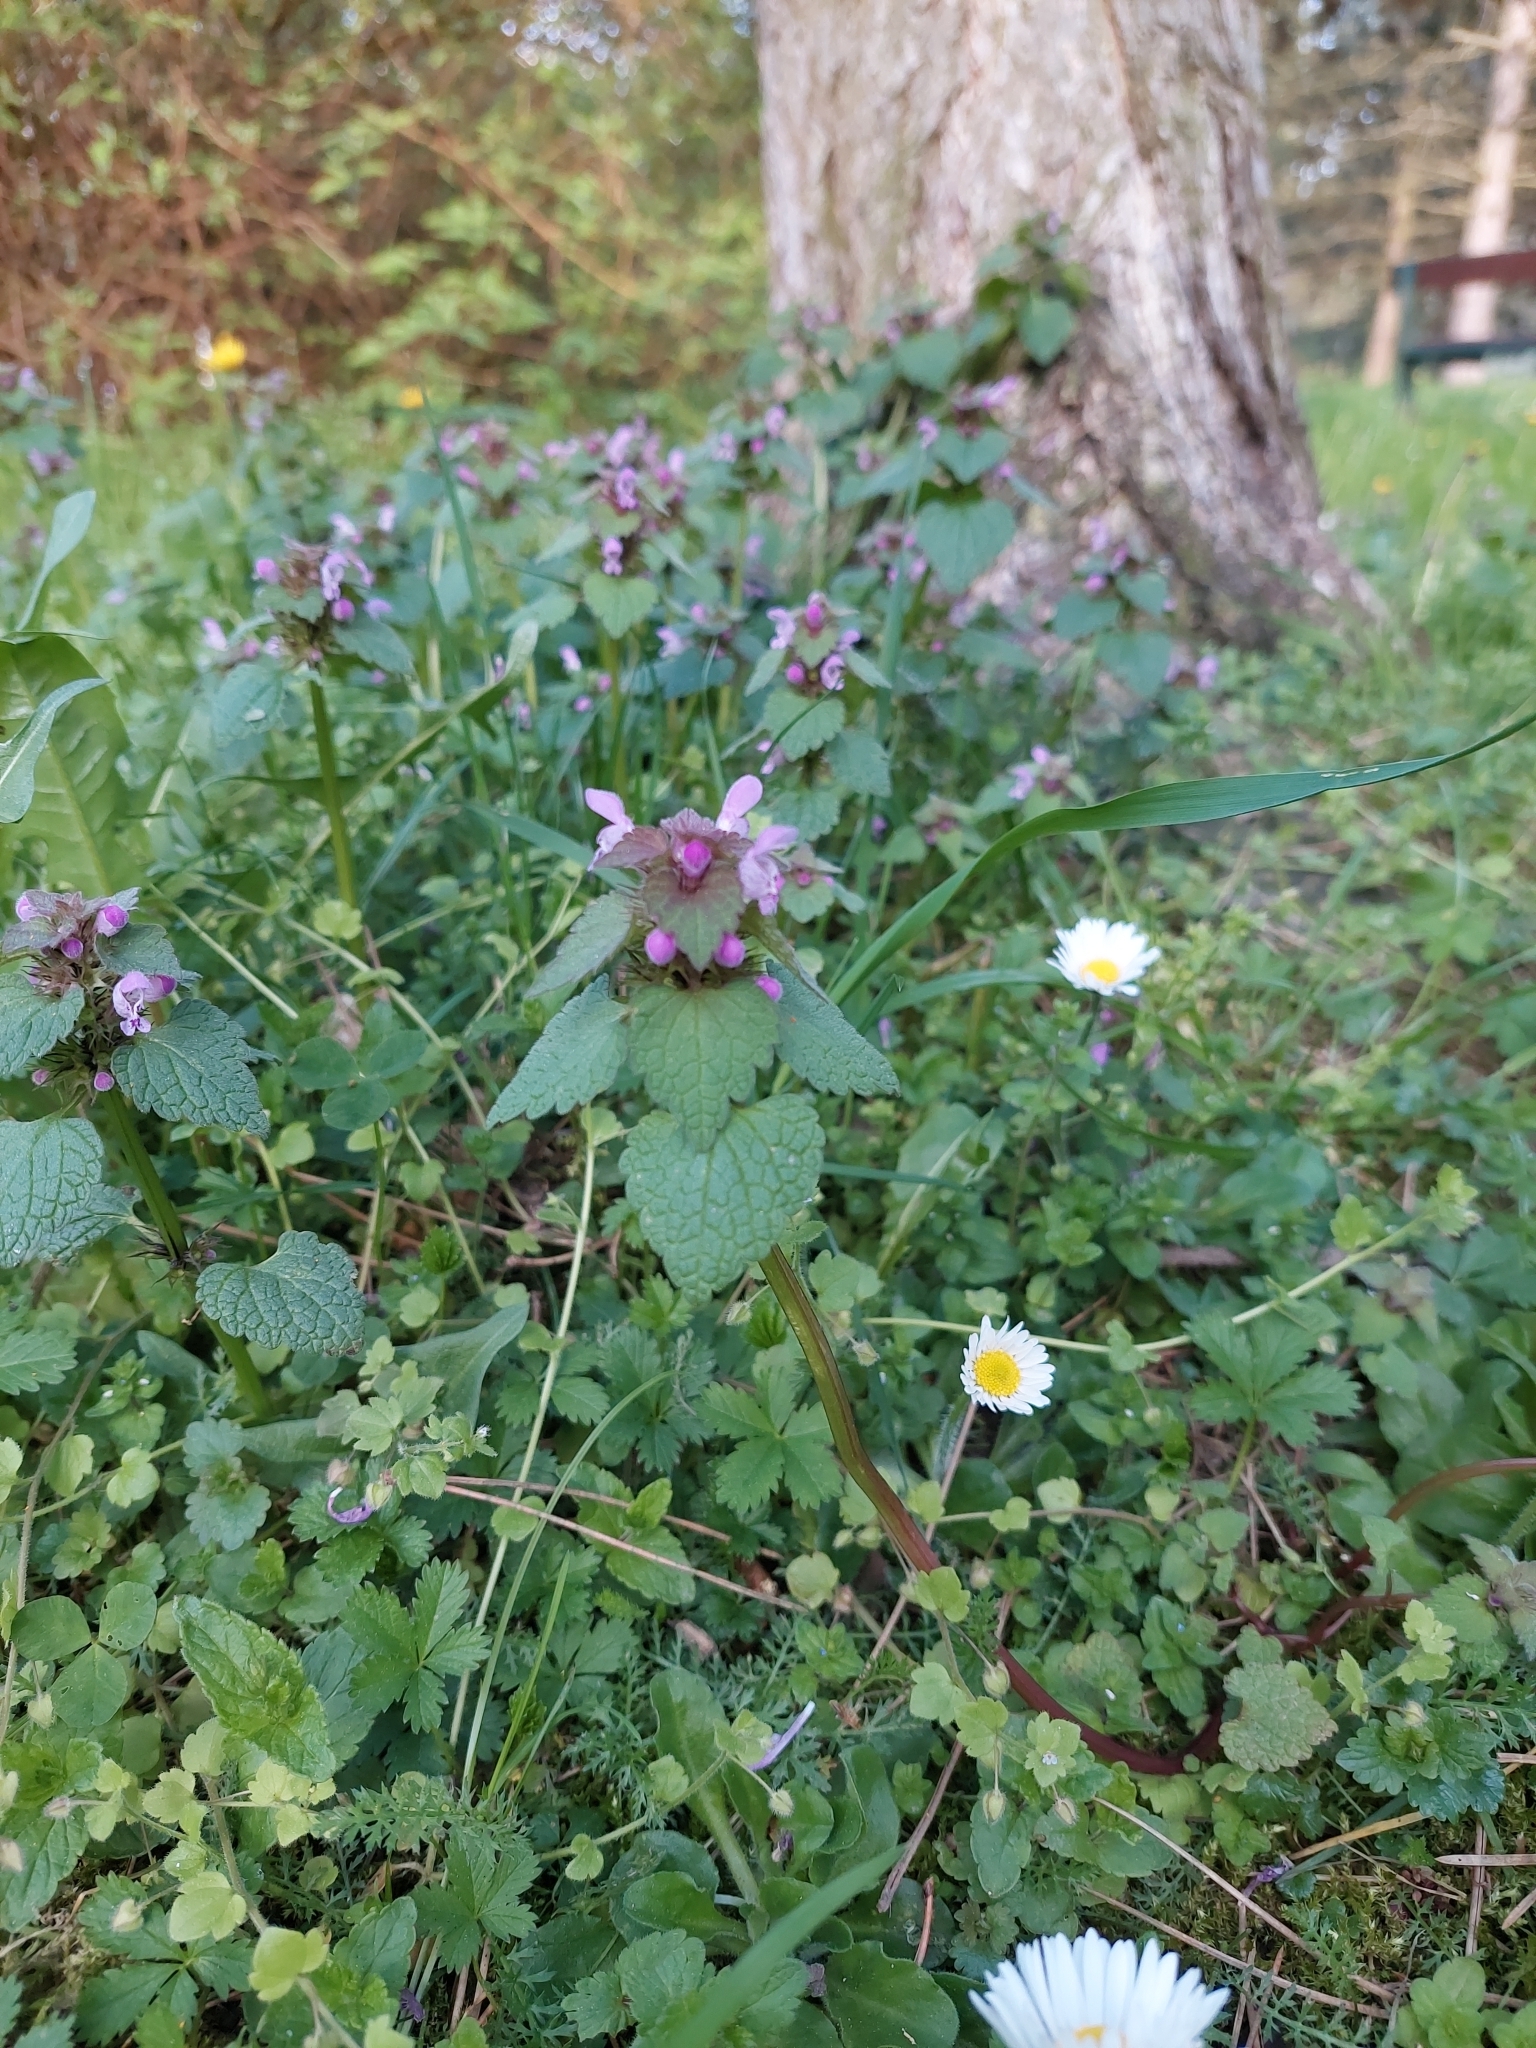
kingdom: Plantae
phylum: Tracheophyta
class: Magnoliopsida
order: Lamiales
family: Lamiaceae
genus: Lamium
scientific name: Lamium purpureum
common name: Red dead-nettle
